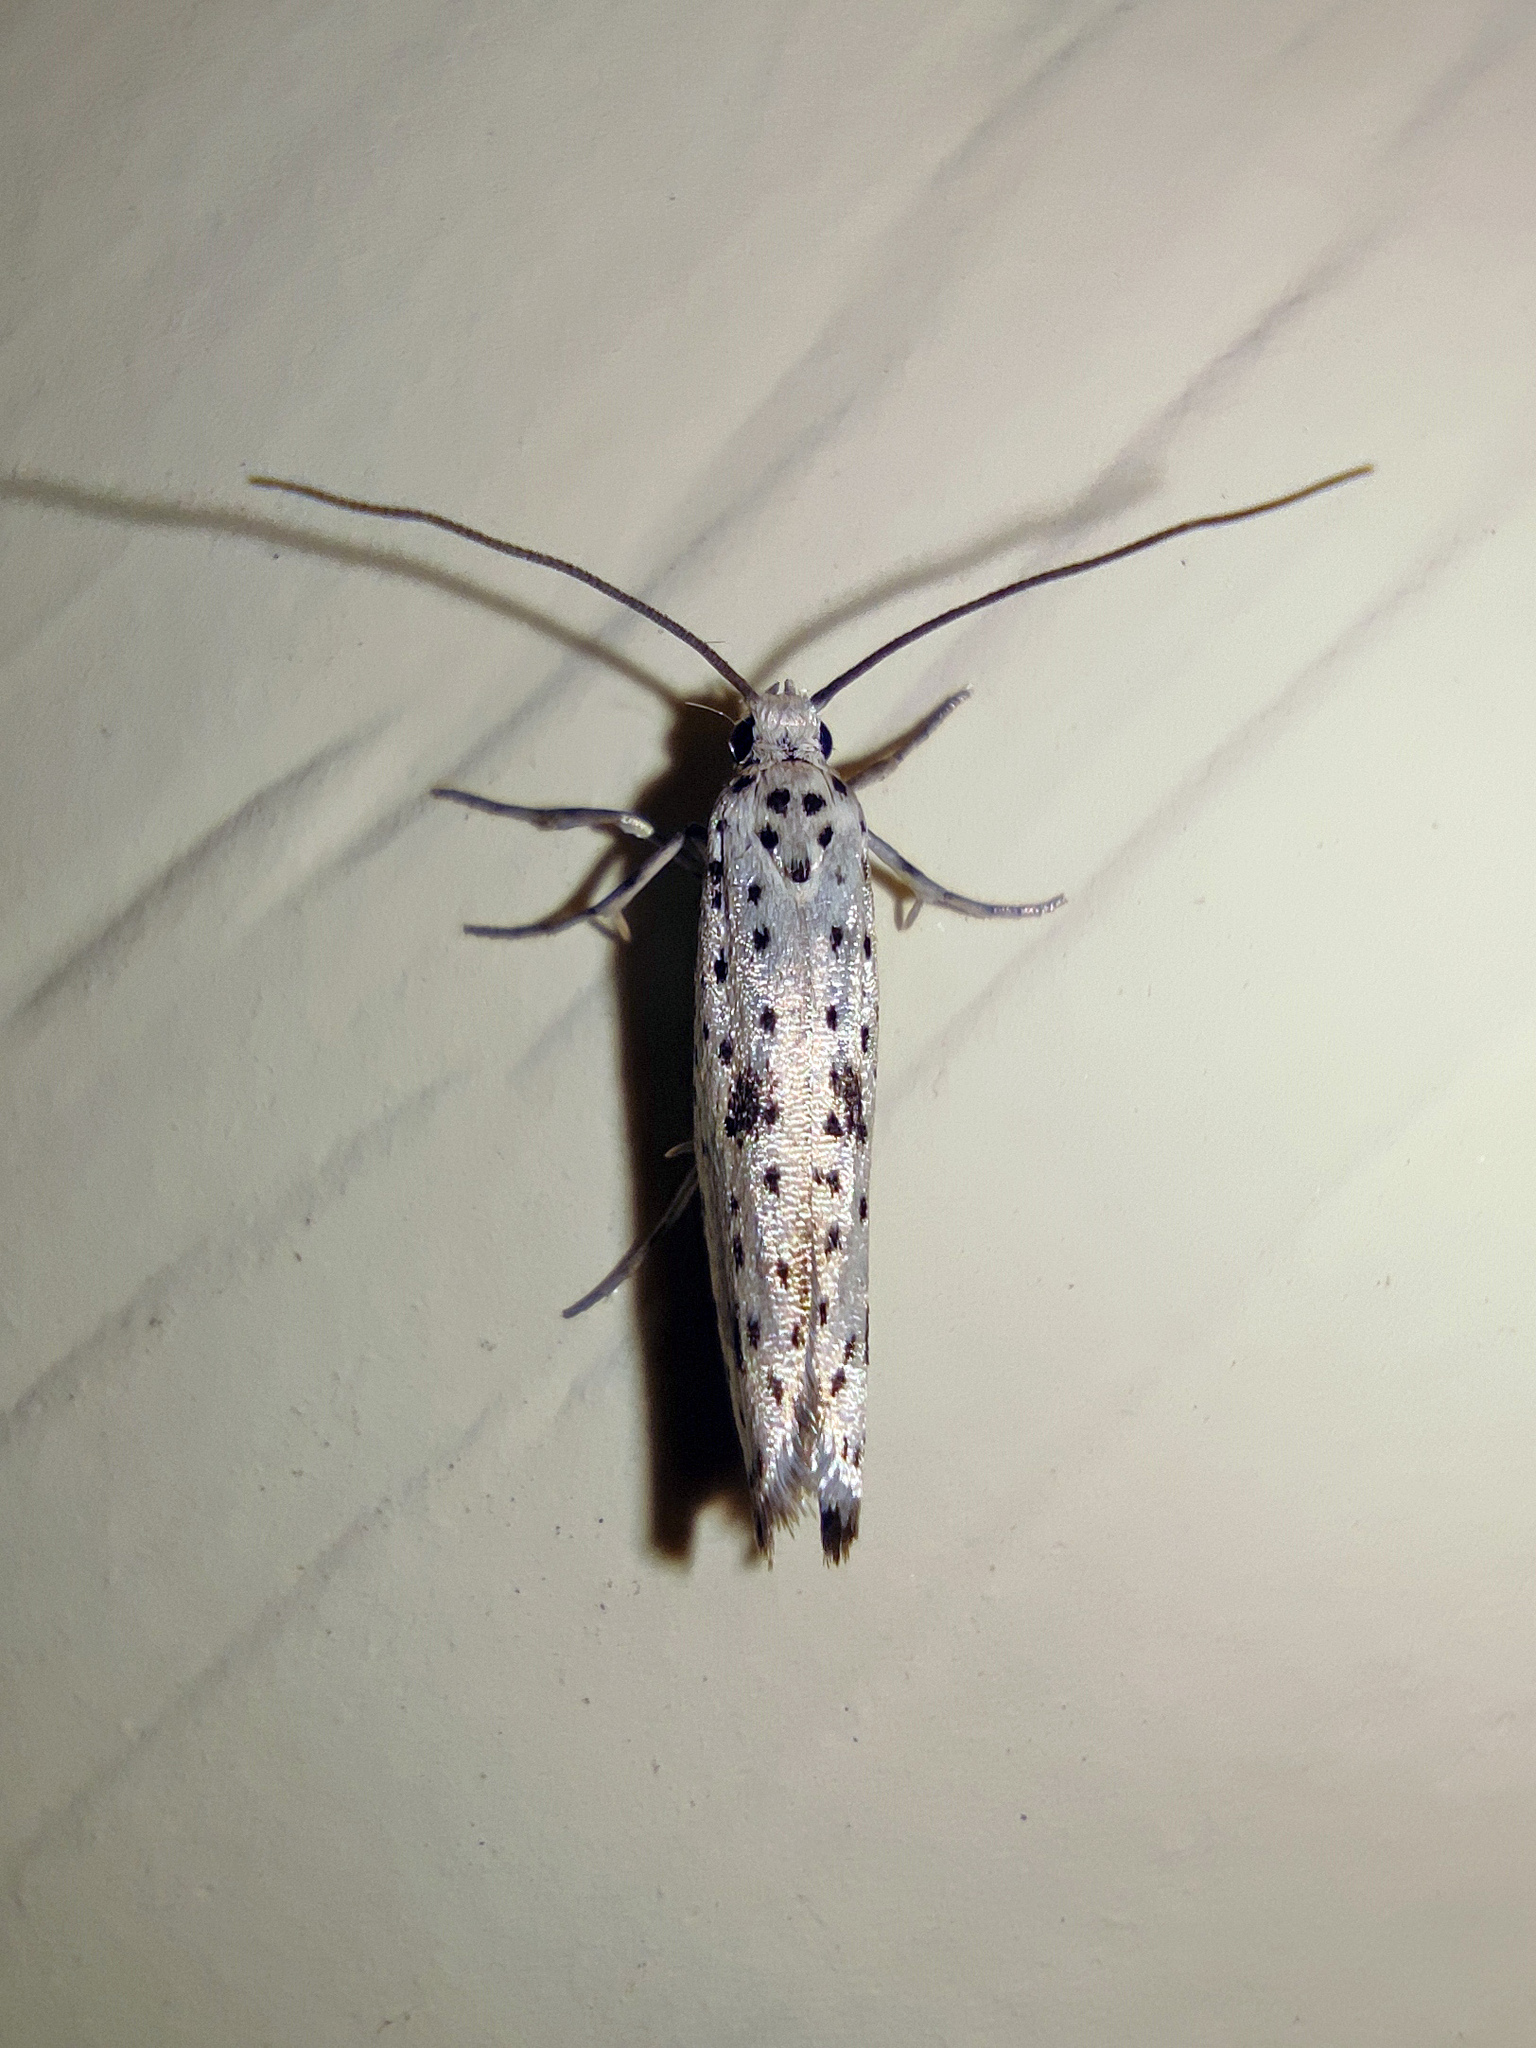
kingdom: Animalia
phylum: Arthropoda
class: Insecta
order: Lepidoptera
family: Yponomeutidae
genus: Yponomeuta
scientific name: Yponomeuta plumbella
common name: Black-tipped ermine
